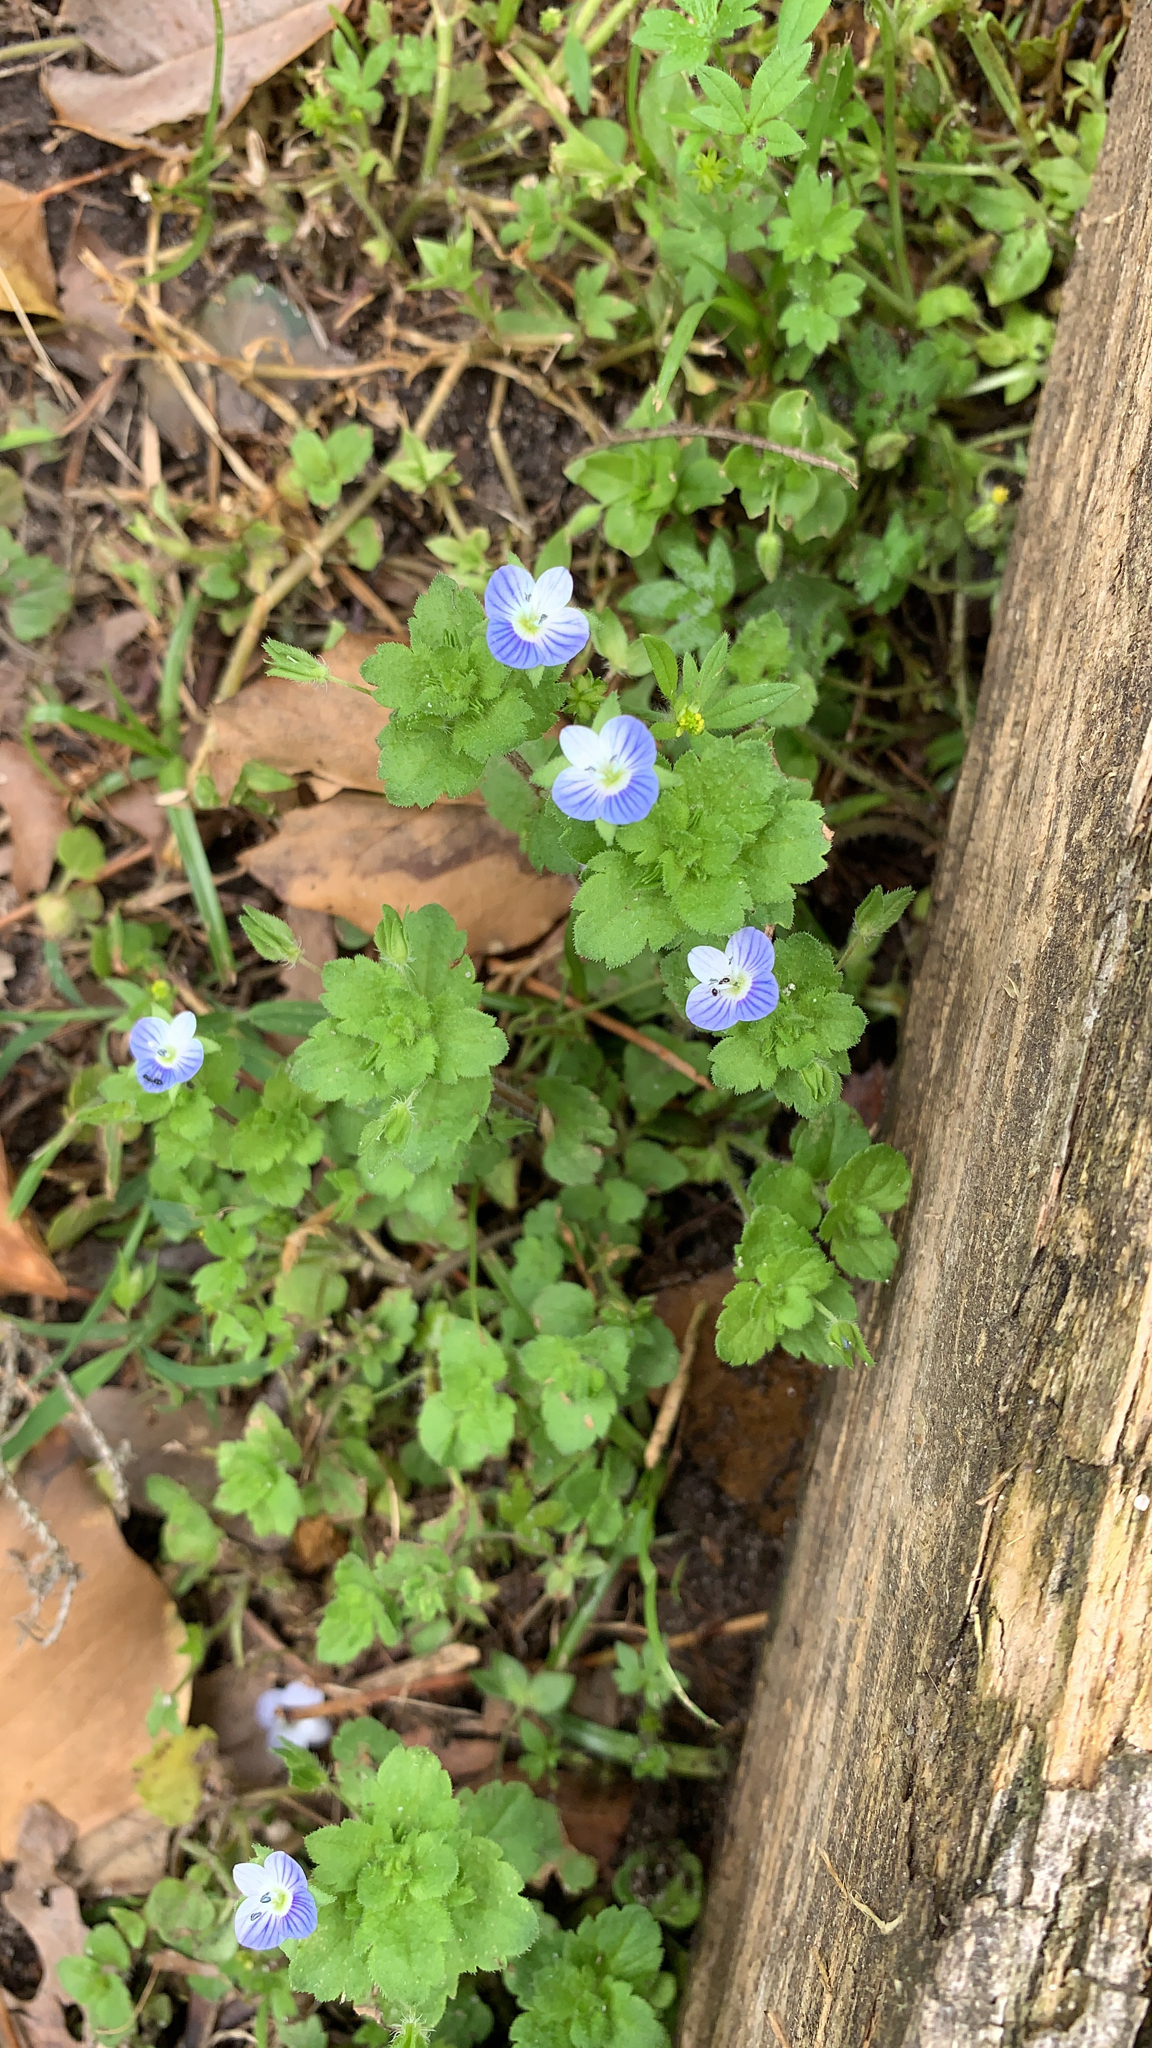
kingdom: Plantae
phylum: Tracheophyta
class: Magnoliopsida
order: Lamiales
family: Plantaginaceae
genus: Veronica
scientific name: Veronica persica
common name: Common field-speedwell
